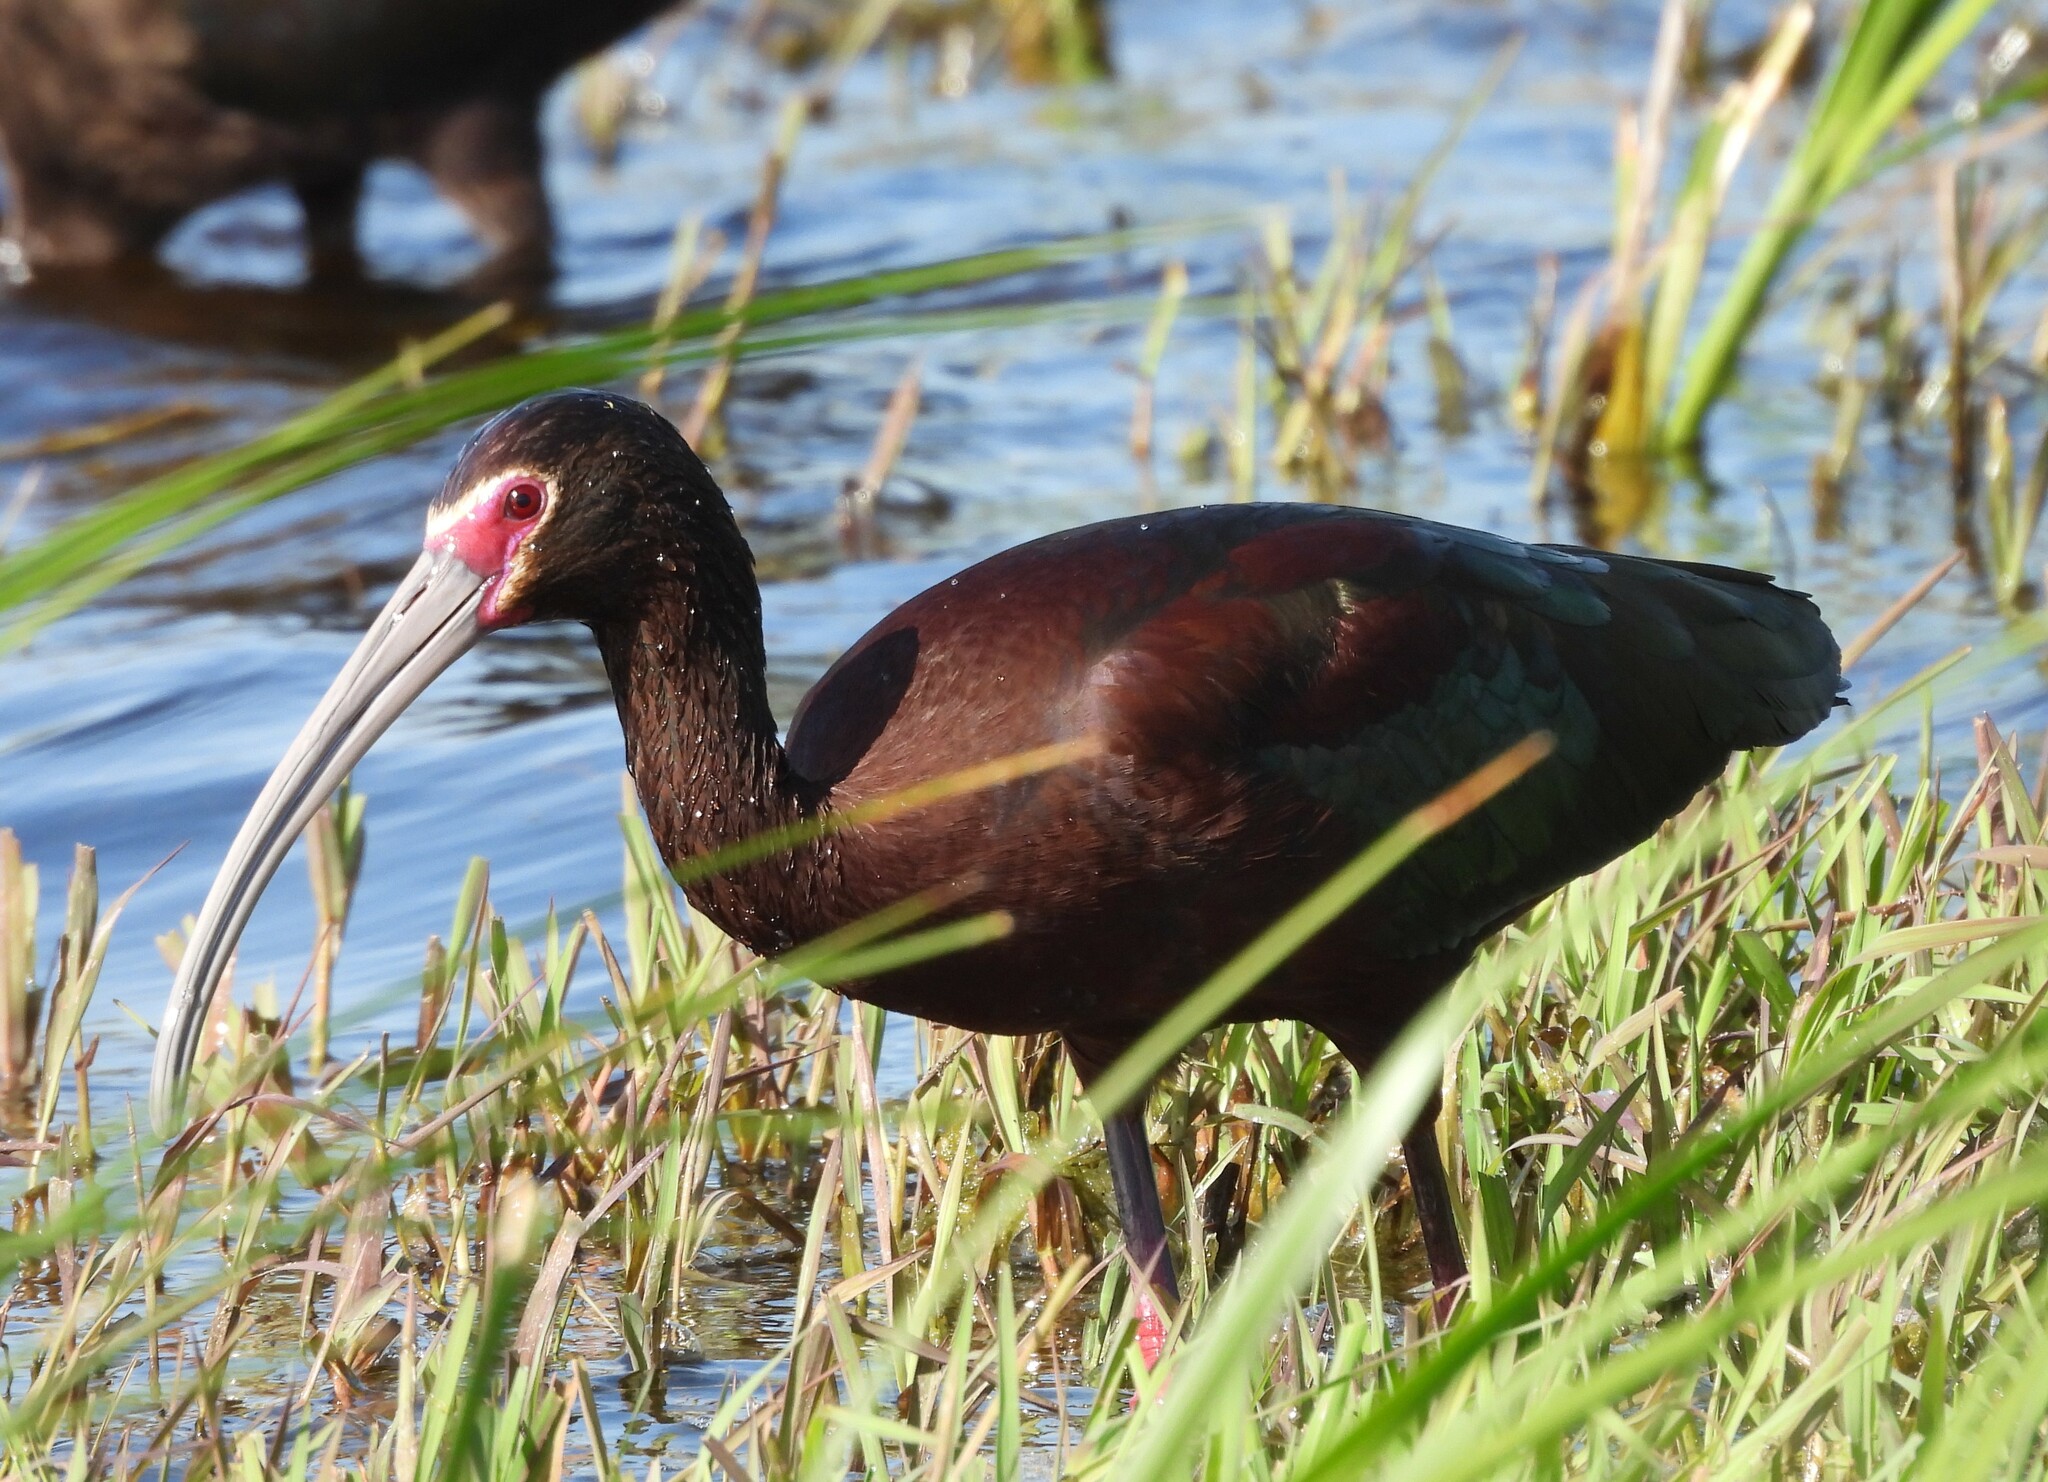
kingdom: Animalia
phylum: Chordata
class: Aves
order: Pelecaniformes
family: Threskiornithidae
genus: Plegadis
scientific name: Plegadis chihi
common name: White-faced ibis
